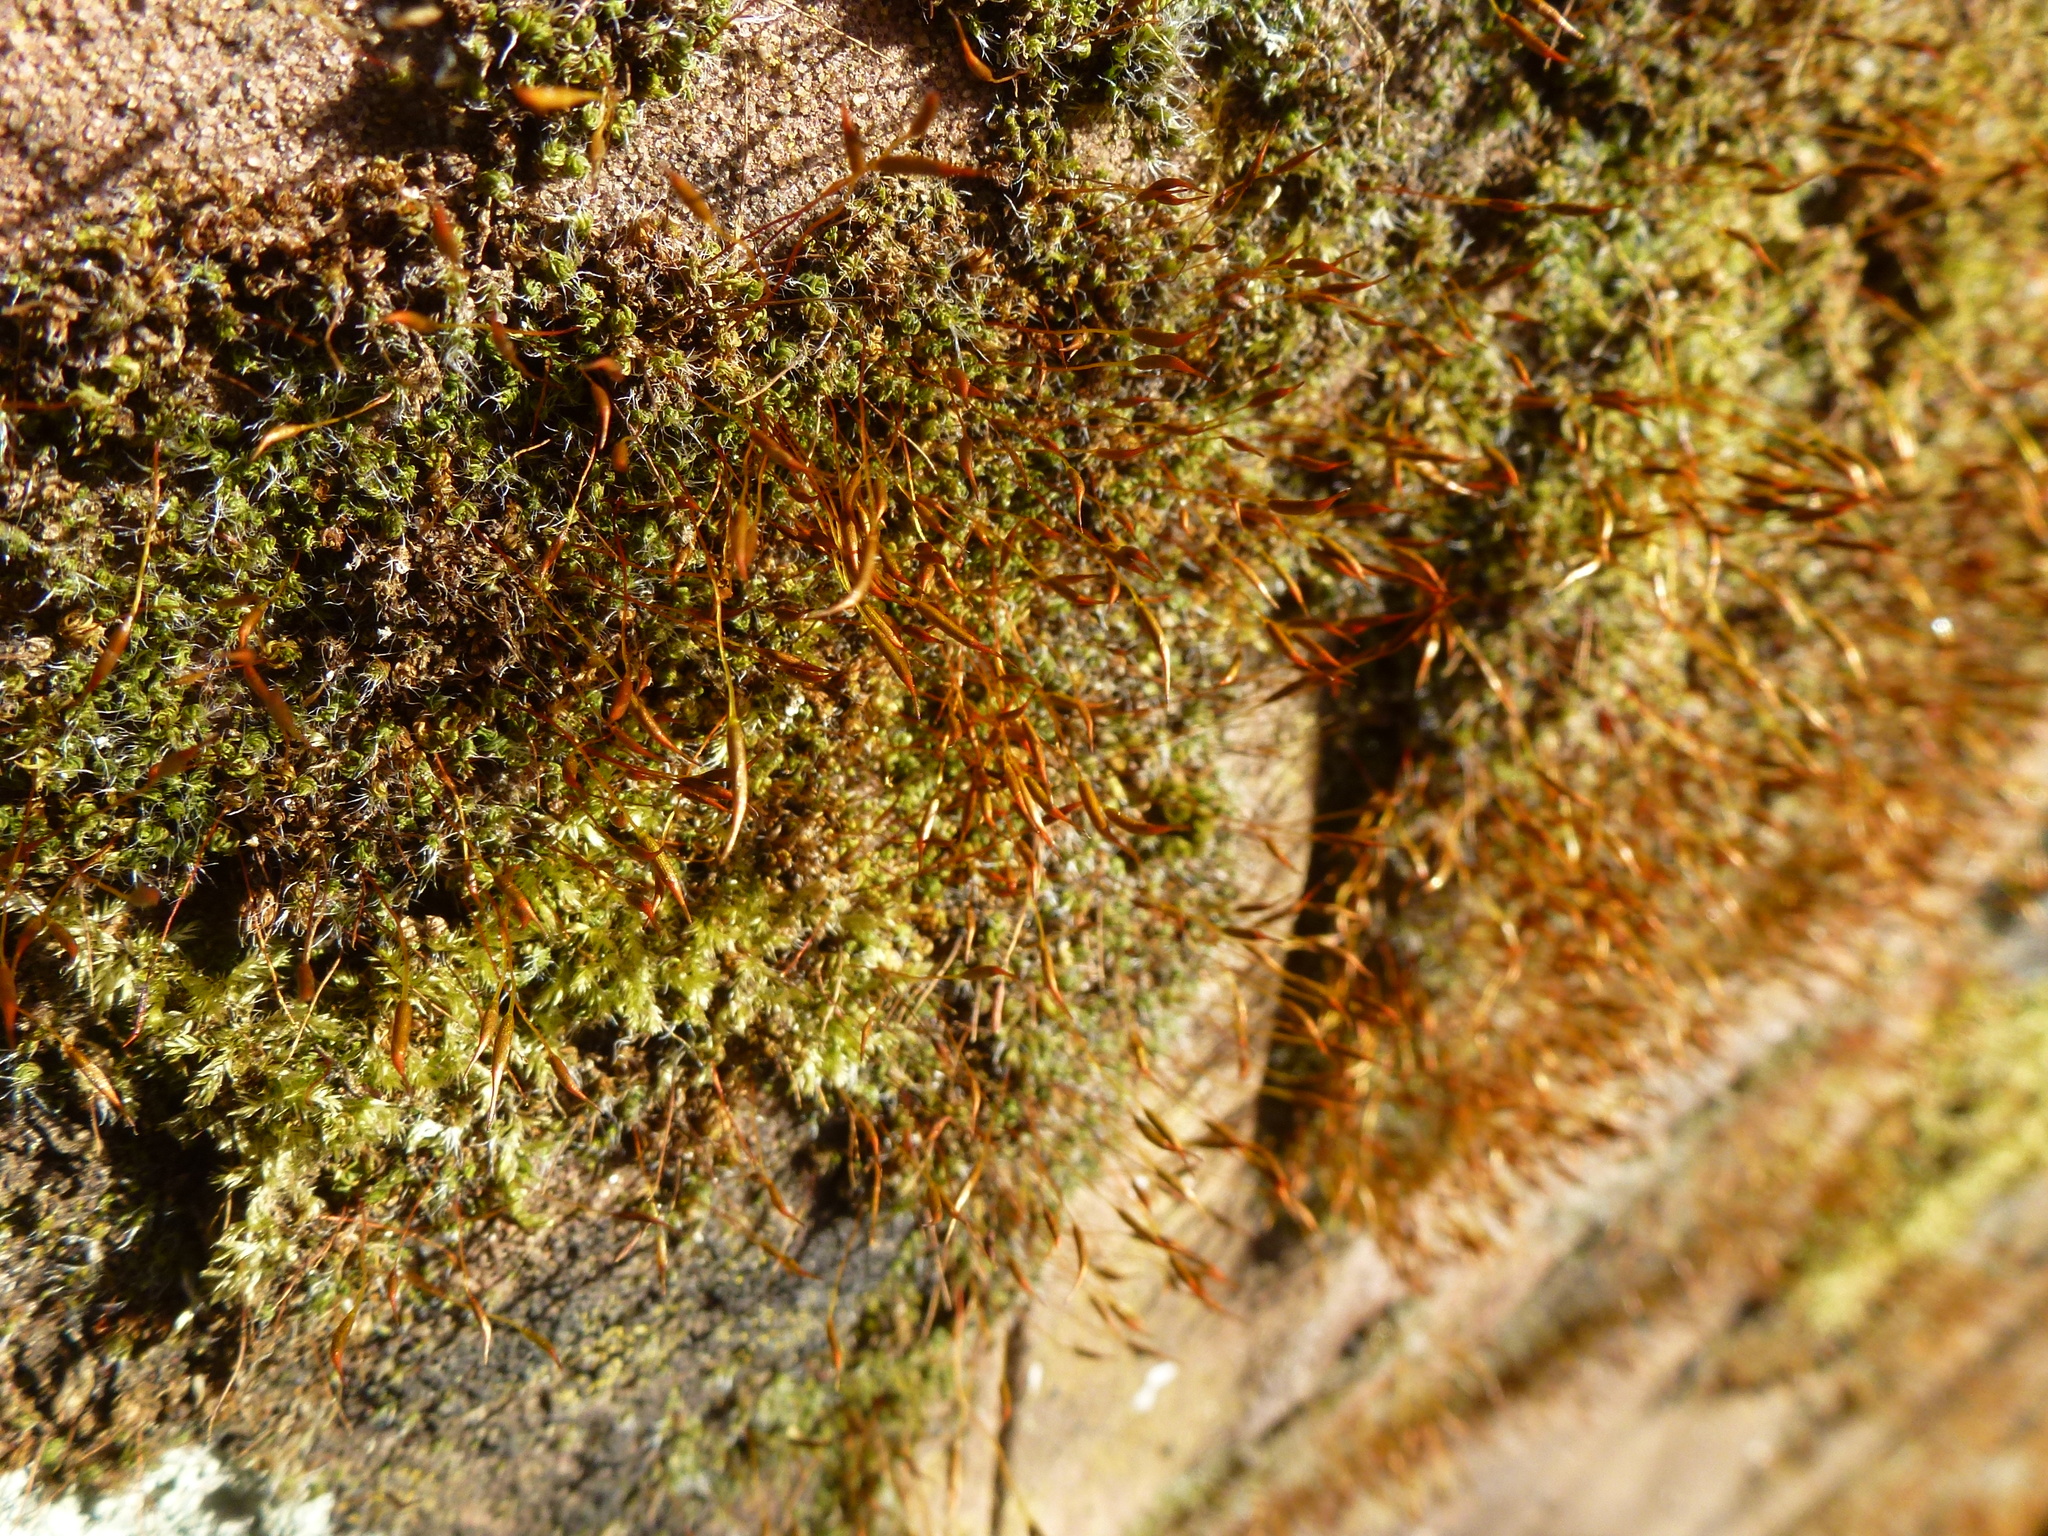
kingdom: Plantae
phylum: Bryophyta
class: Bryopsida
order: Pottiales
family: Pottiaceae
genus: Tortula
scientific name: Tortula muralis
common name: Wall screw-moss
